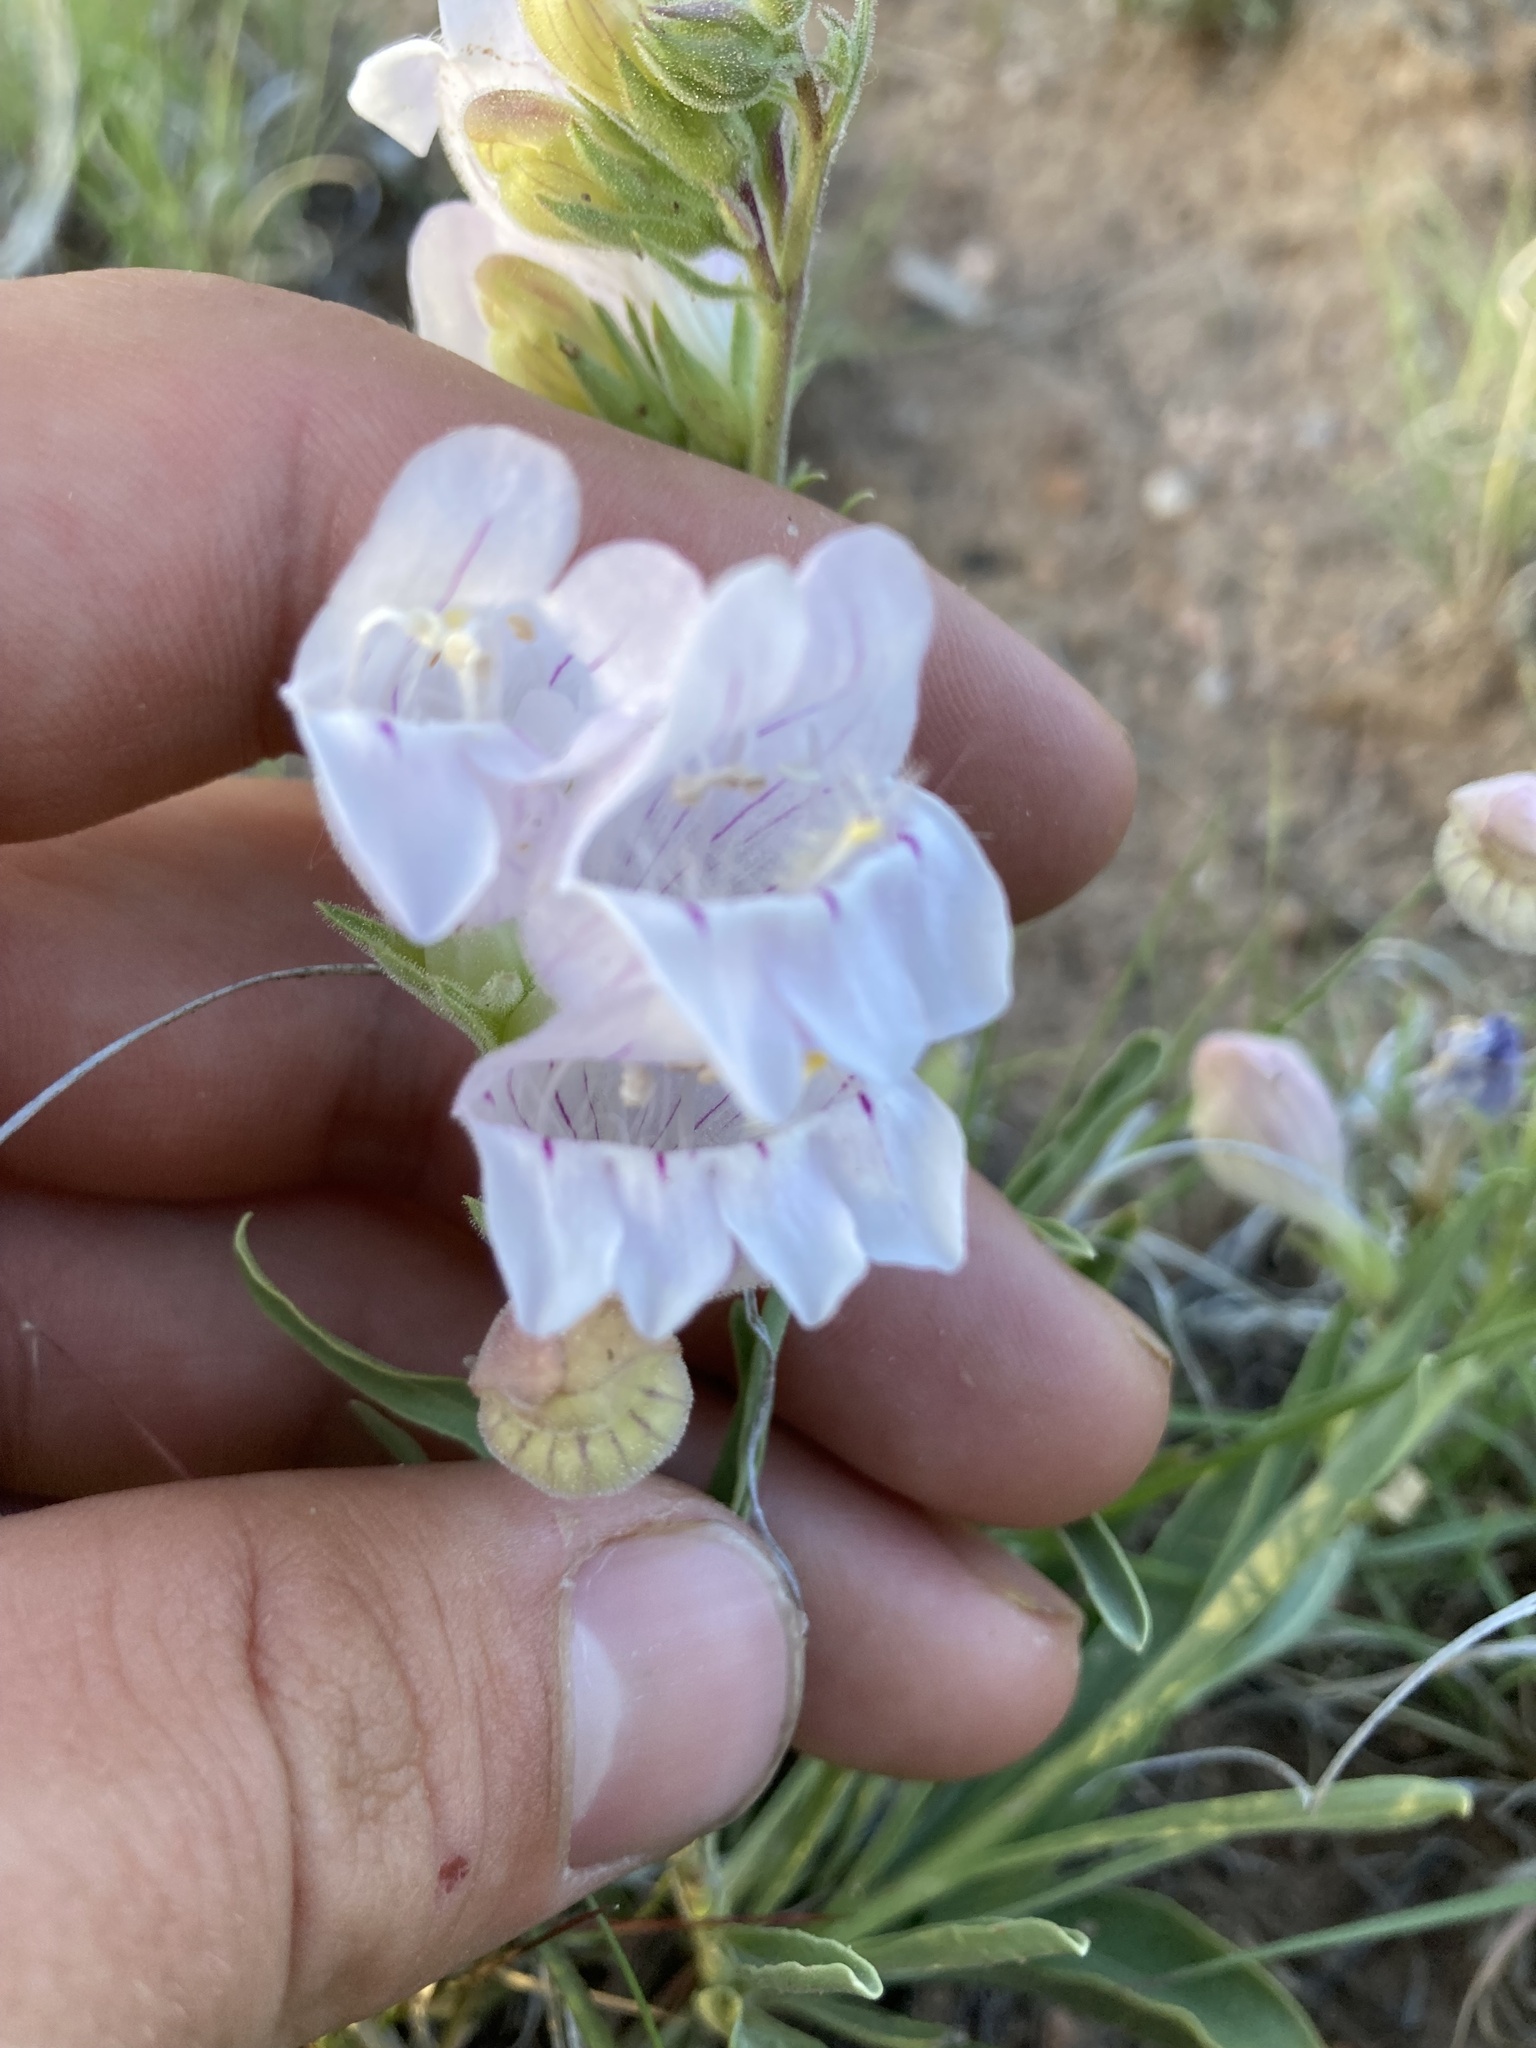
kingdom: Plantae
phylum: Tracheophyta
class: Magnoliopsida
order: Lamiales
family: Plantaginaceae
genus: Penstemon
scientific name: Penstemon jamesii
